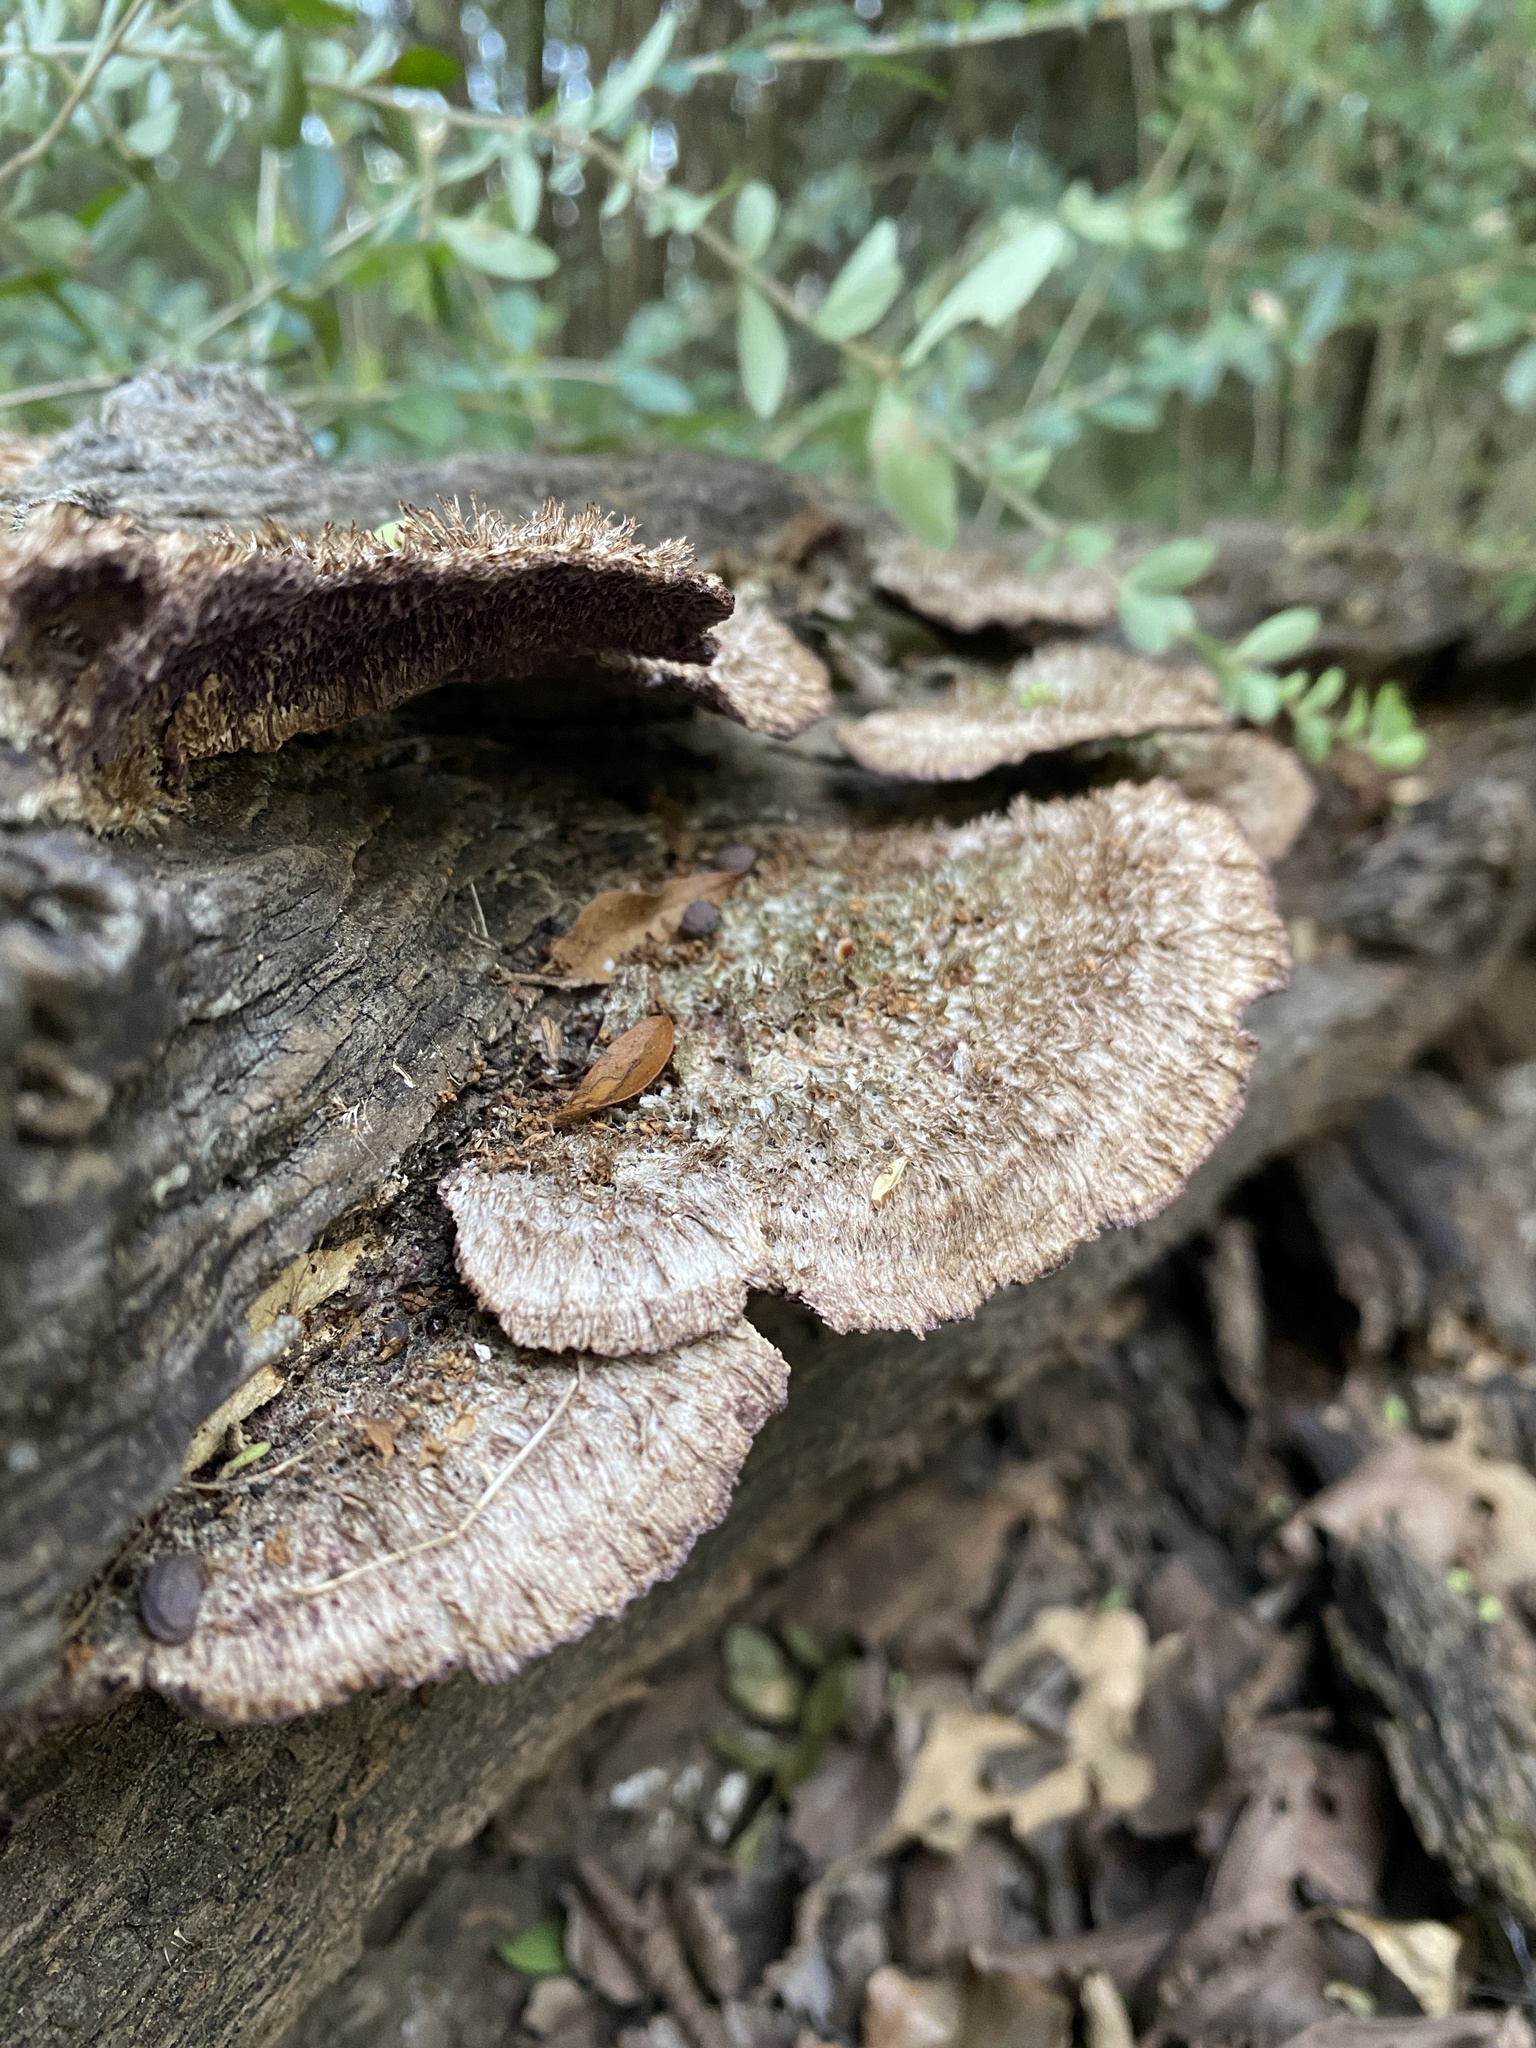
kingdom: Fungi
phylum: Basidiomycota
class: Agaricomycetes
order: Polyporales
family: Cerrenaceae
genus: Cerrena
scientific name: Cerrena hydnoides
